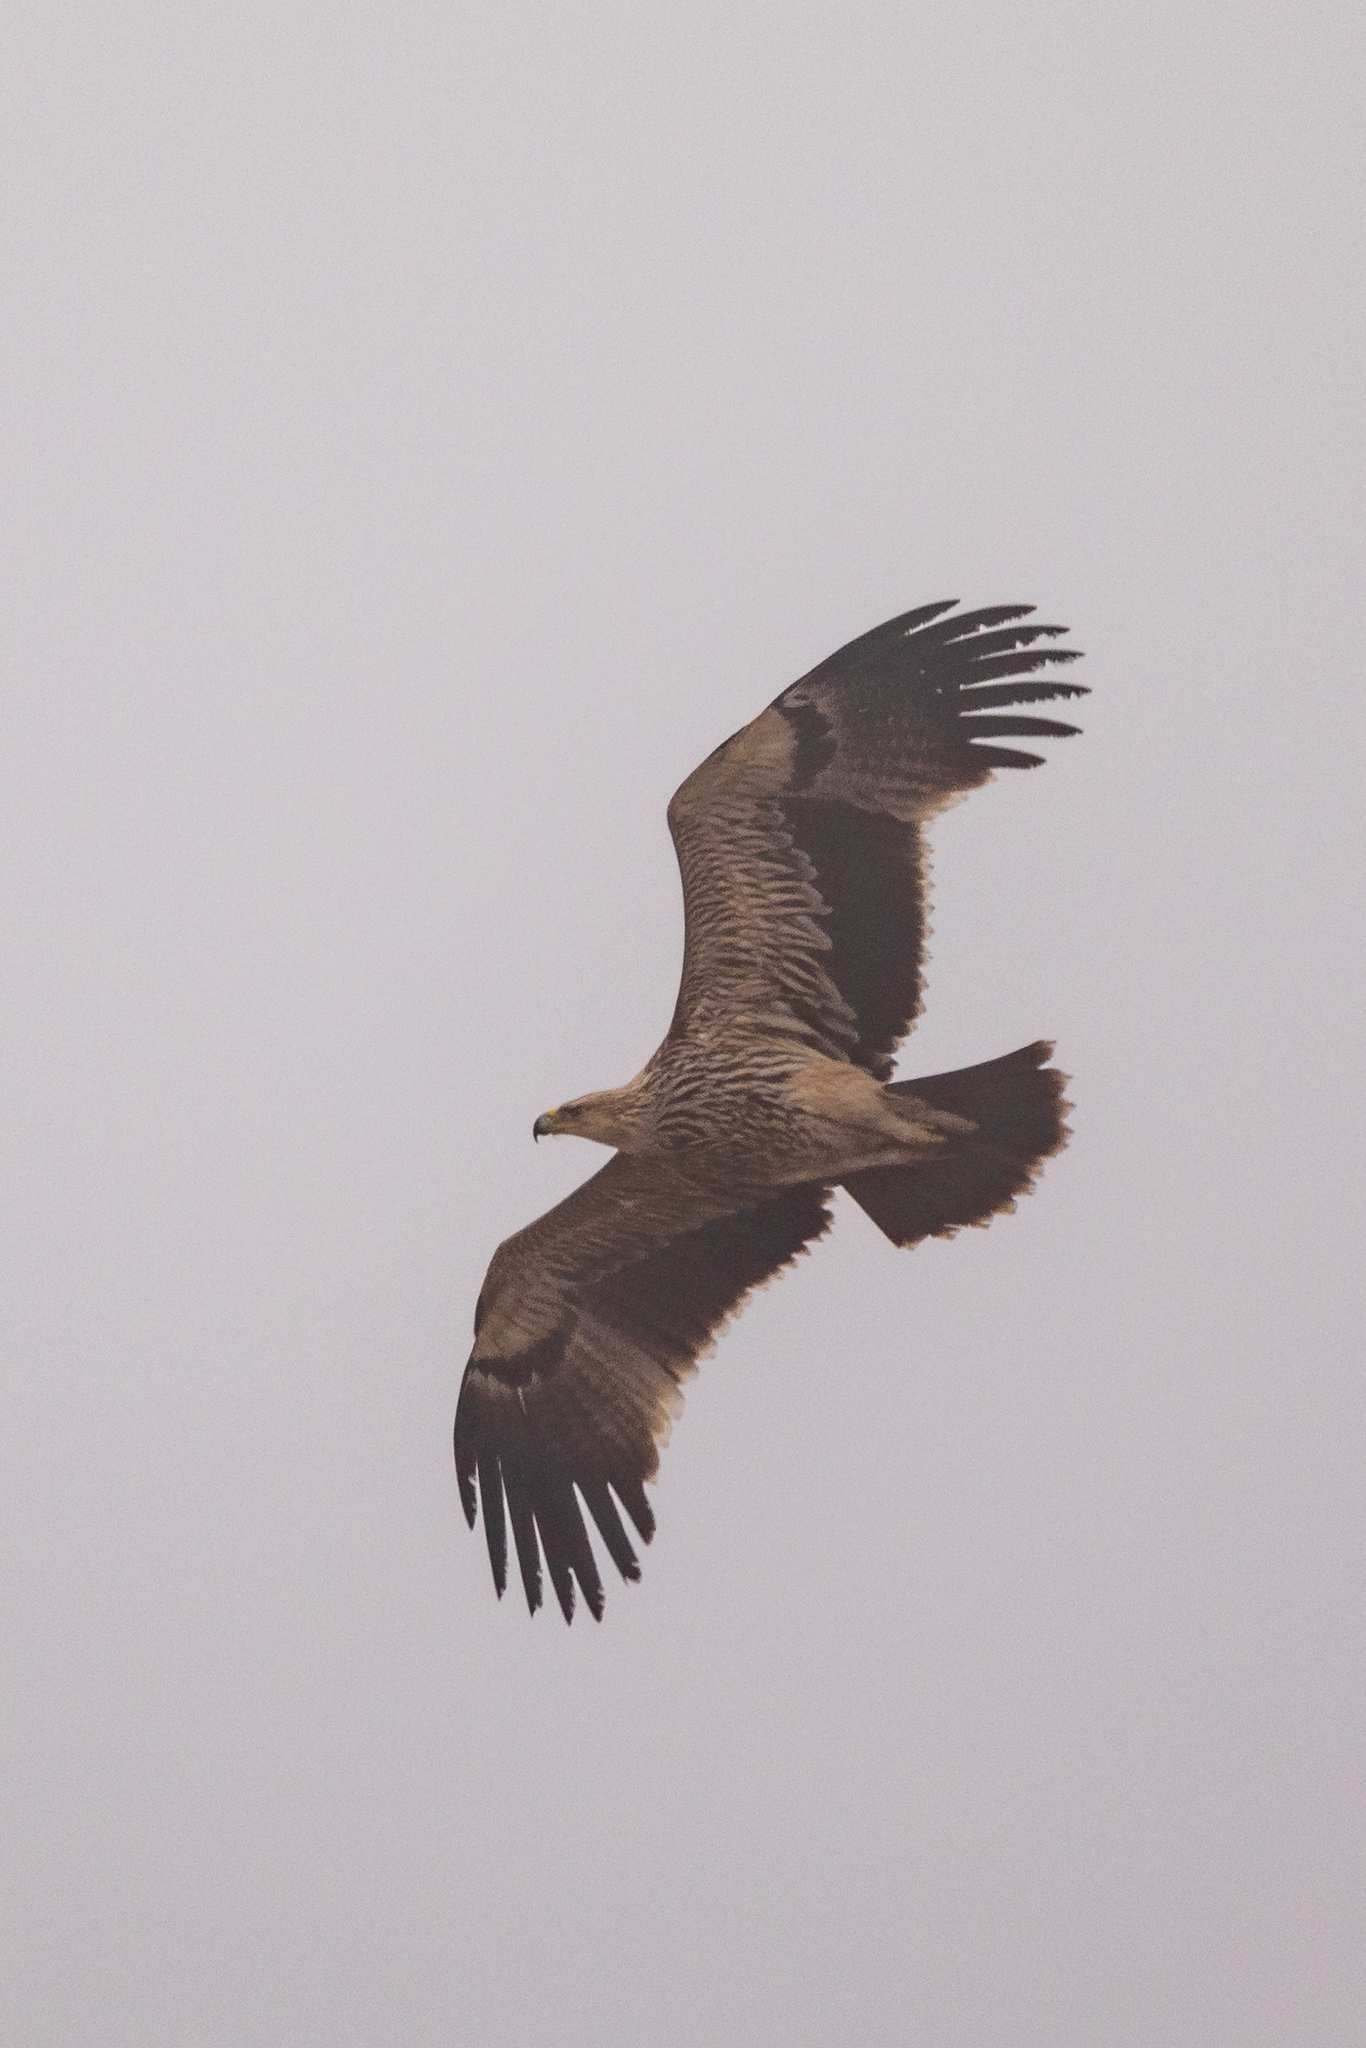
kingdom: Animalia
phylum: Chordata
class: Aves
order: Accipitriformes
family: Accipitridae
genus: Aquila
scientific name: Aquila heliaca
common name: Eastern imperial eagle
